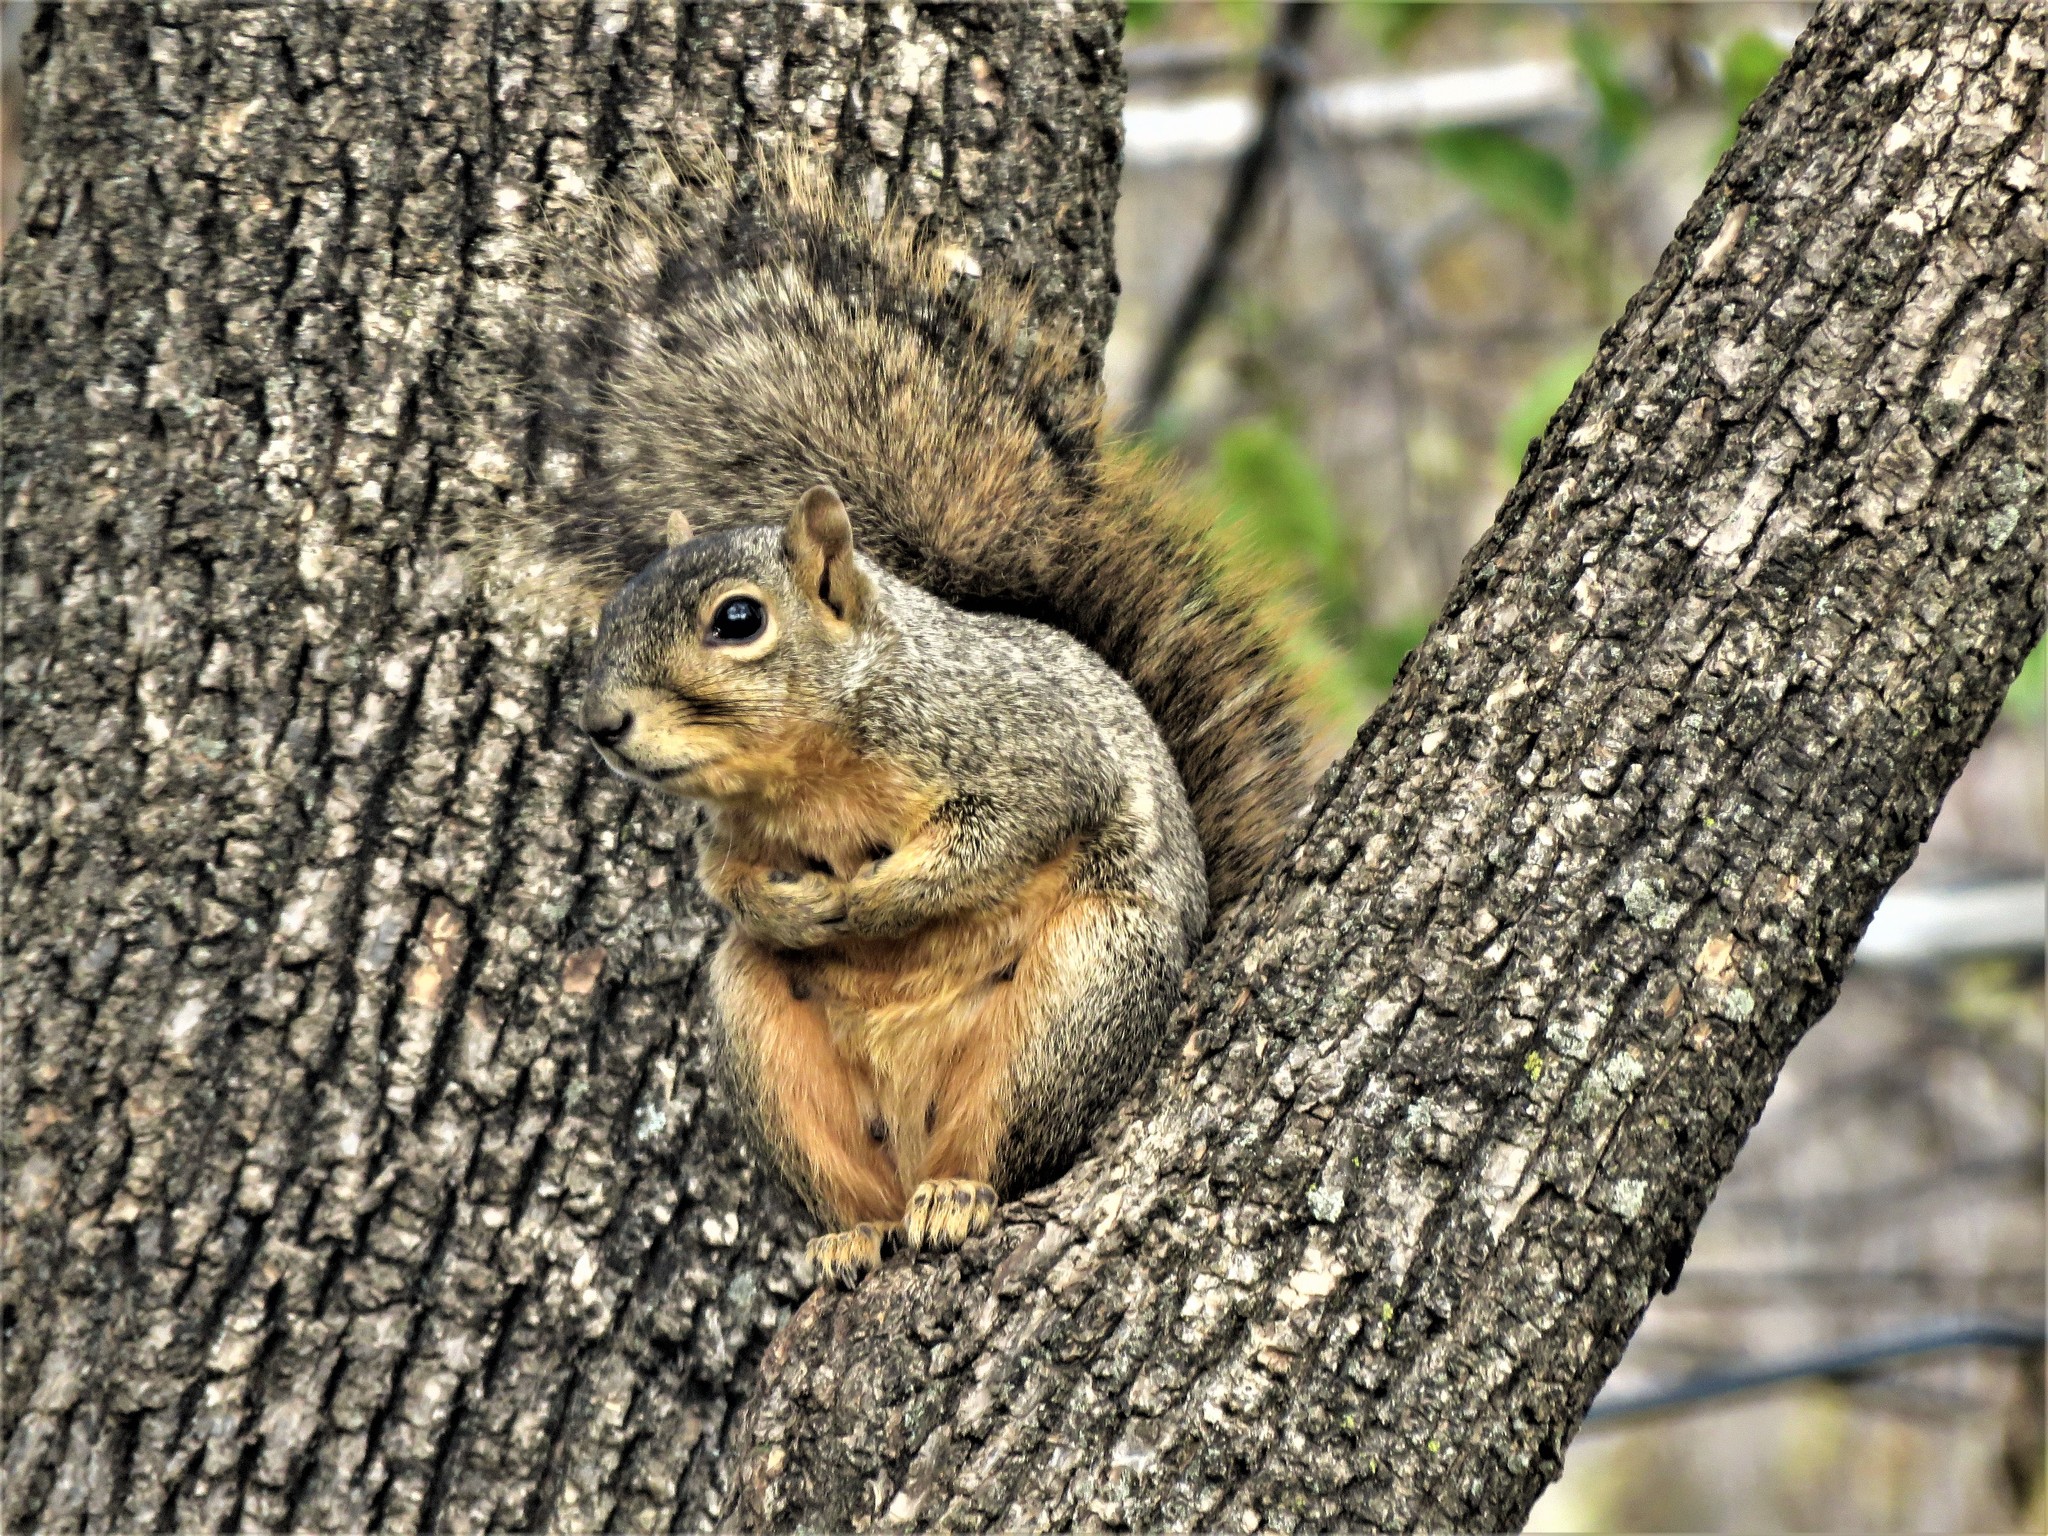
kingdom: Animalia
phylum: Chordata
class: Mammalia
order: Rodentia
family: Sciuridae
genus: Sciurus
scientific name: Sciurus niger
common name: Fox squirrel
